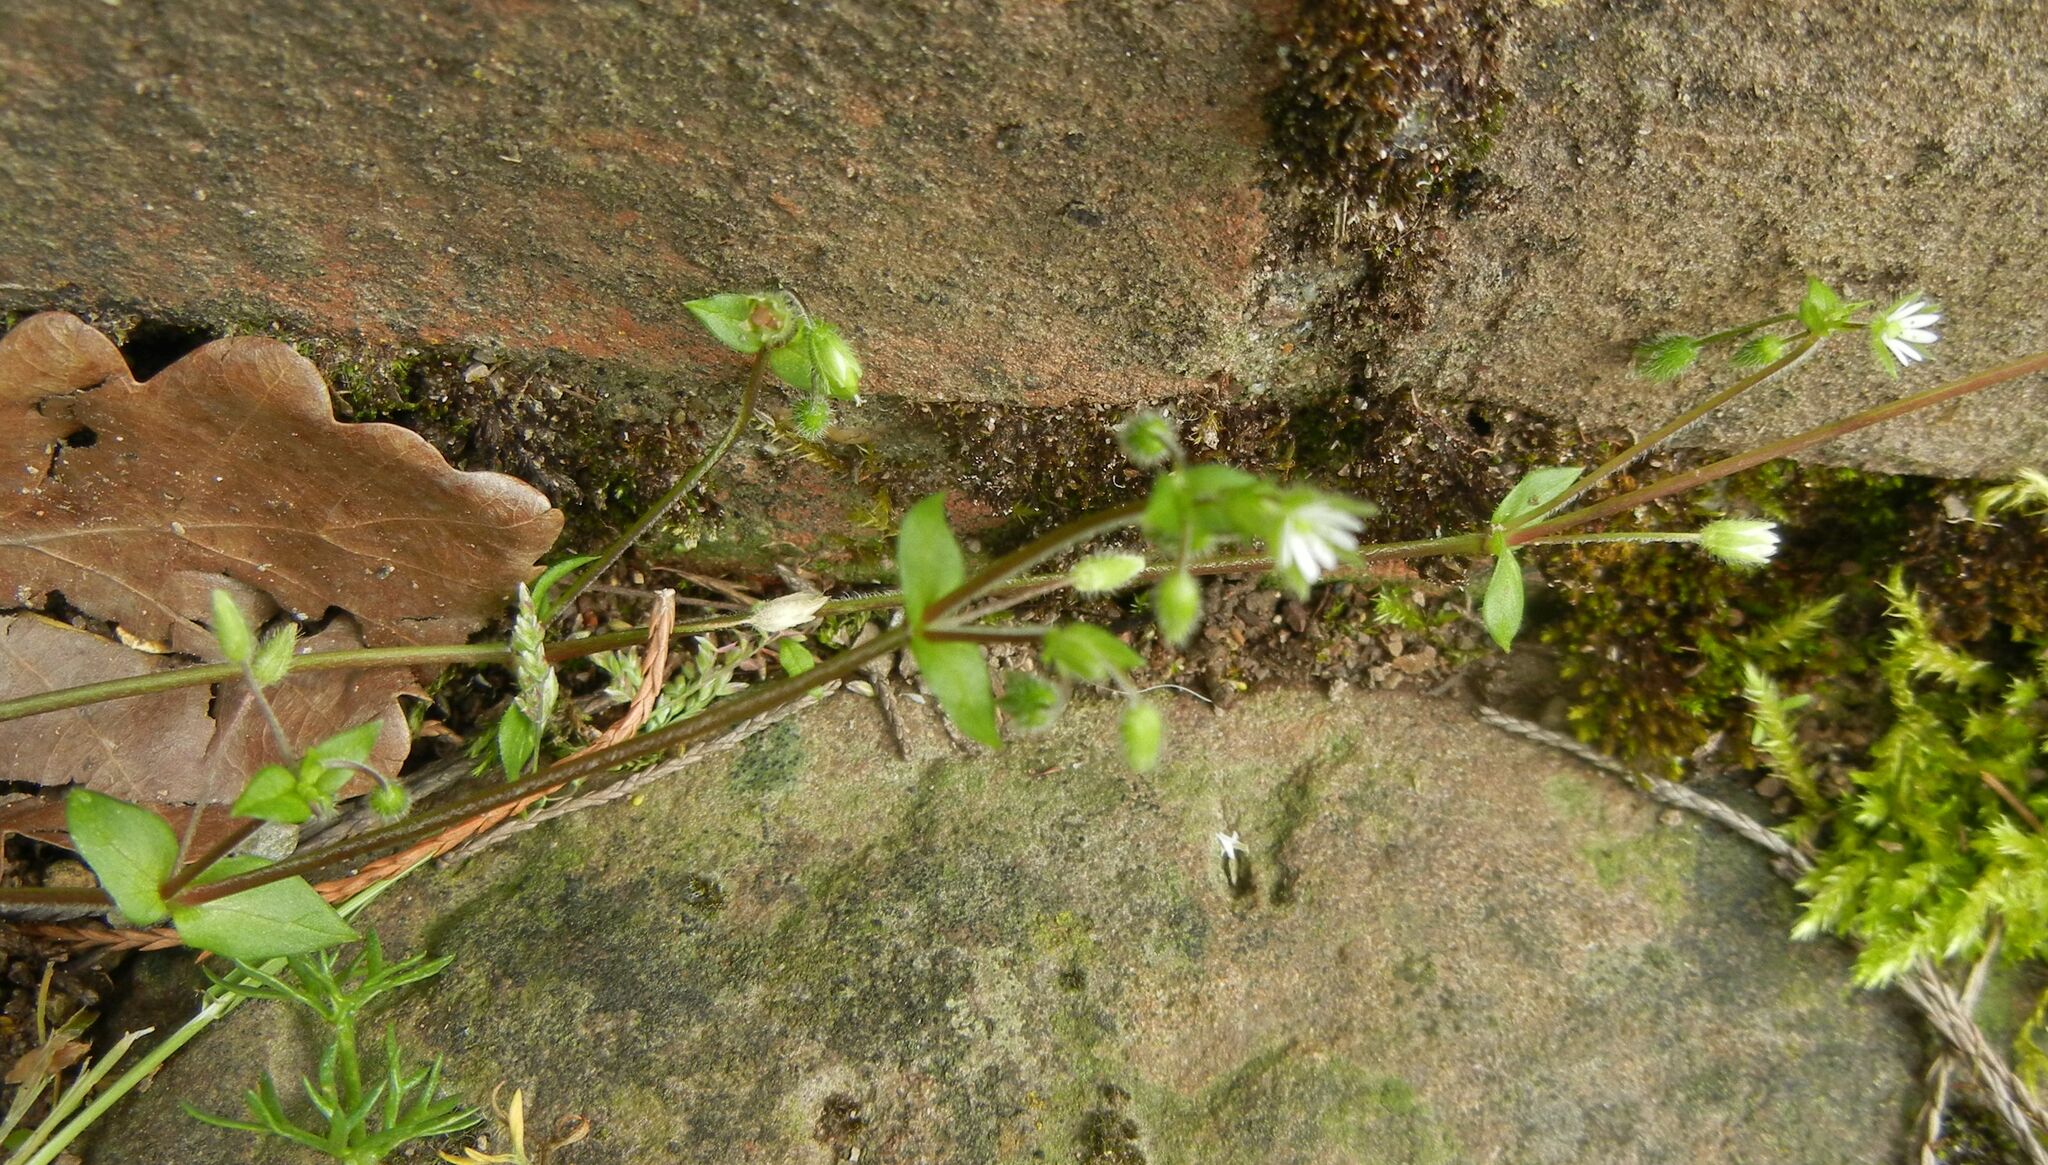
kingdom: Plantae
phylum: Tracheophyta
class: Magnoliopsida
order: Caryophyllales
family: Caryophyllaceae
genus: Stellaria
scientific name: Stellaria media
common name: Common chickweed
